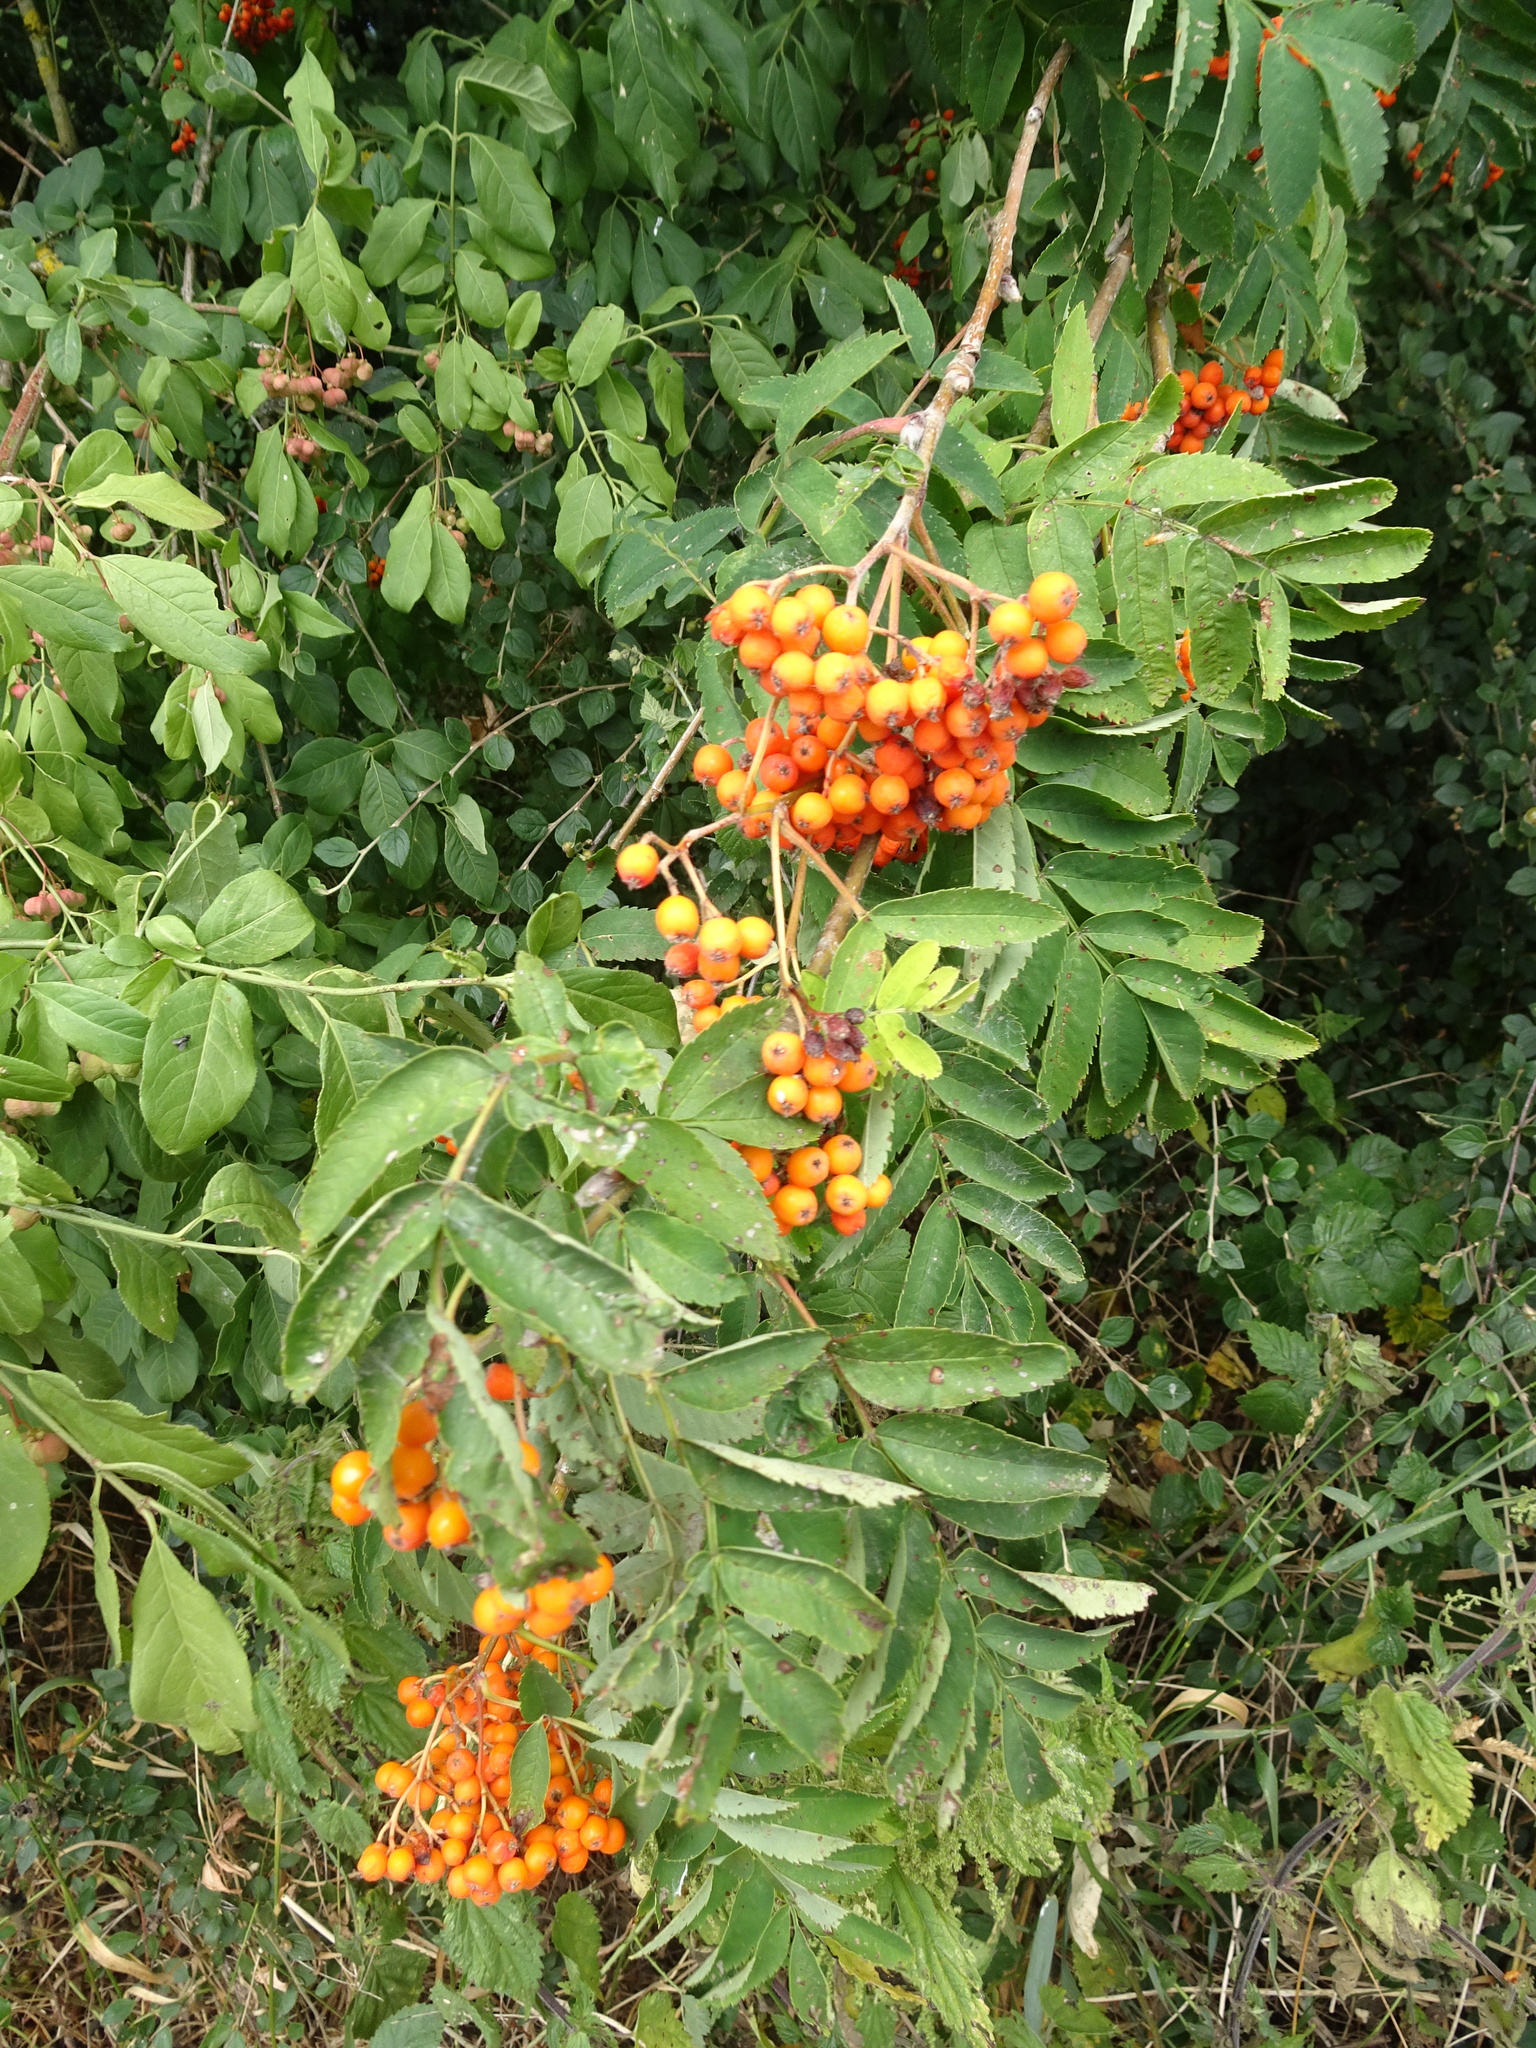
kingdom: Plantae
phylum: Tracheophyta
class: Magnoliopsida
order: Rosales
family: Rosaceae
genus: Sorbus
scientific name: Sorbus aucuparia
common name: Rowan
